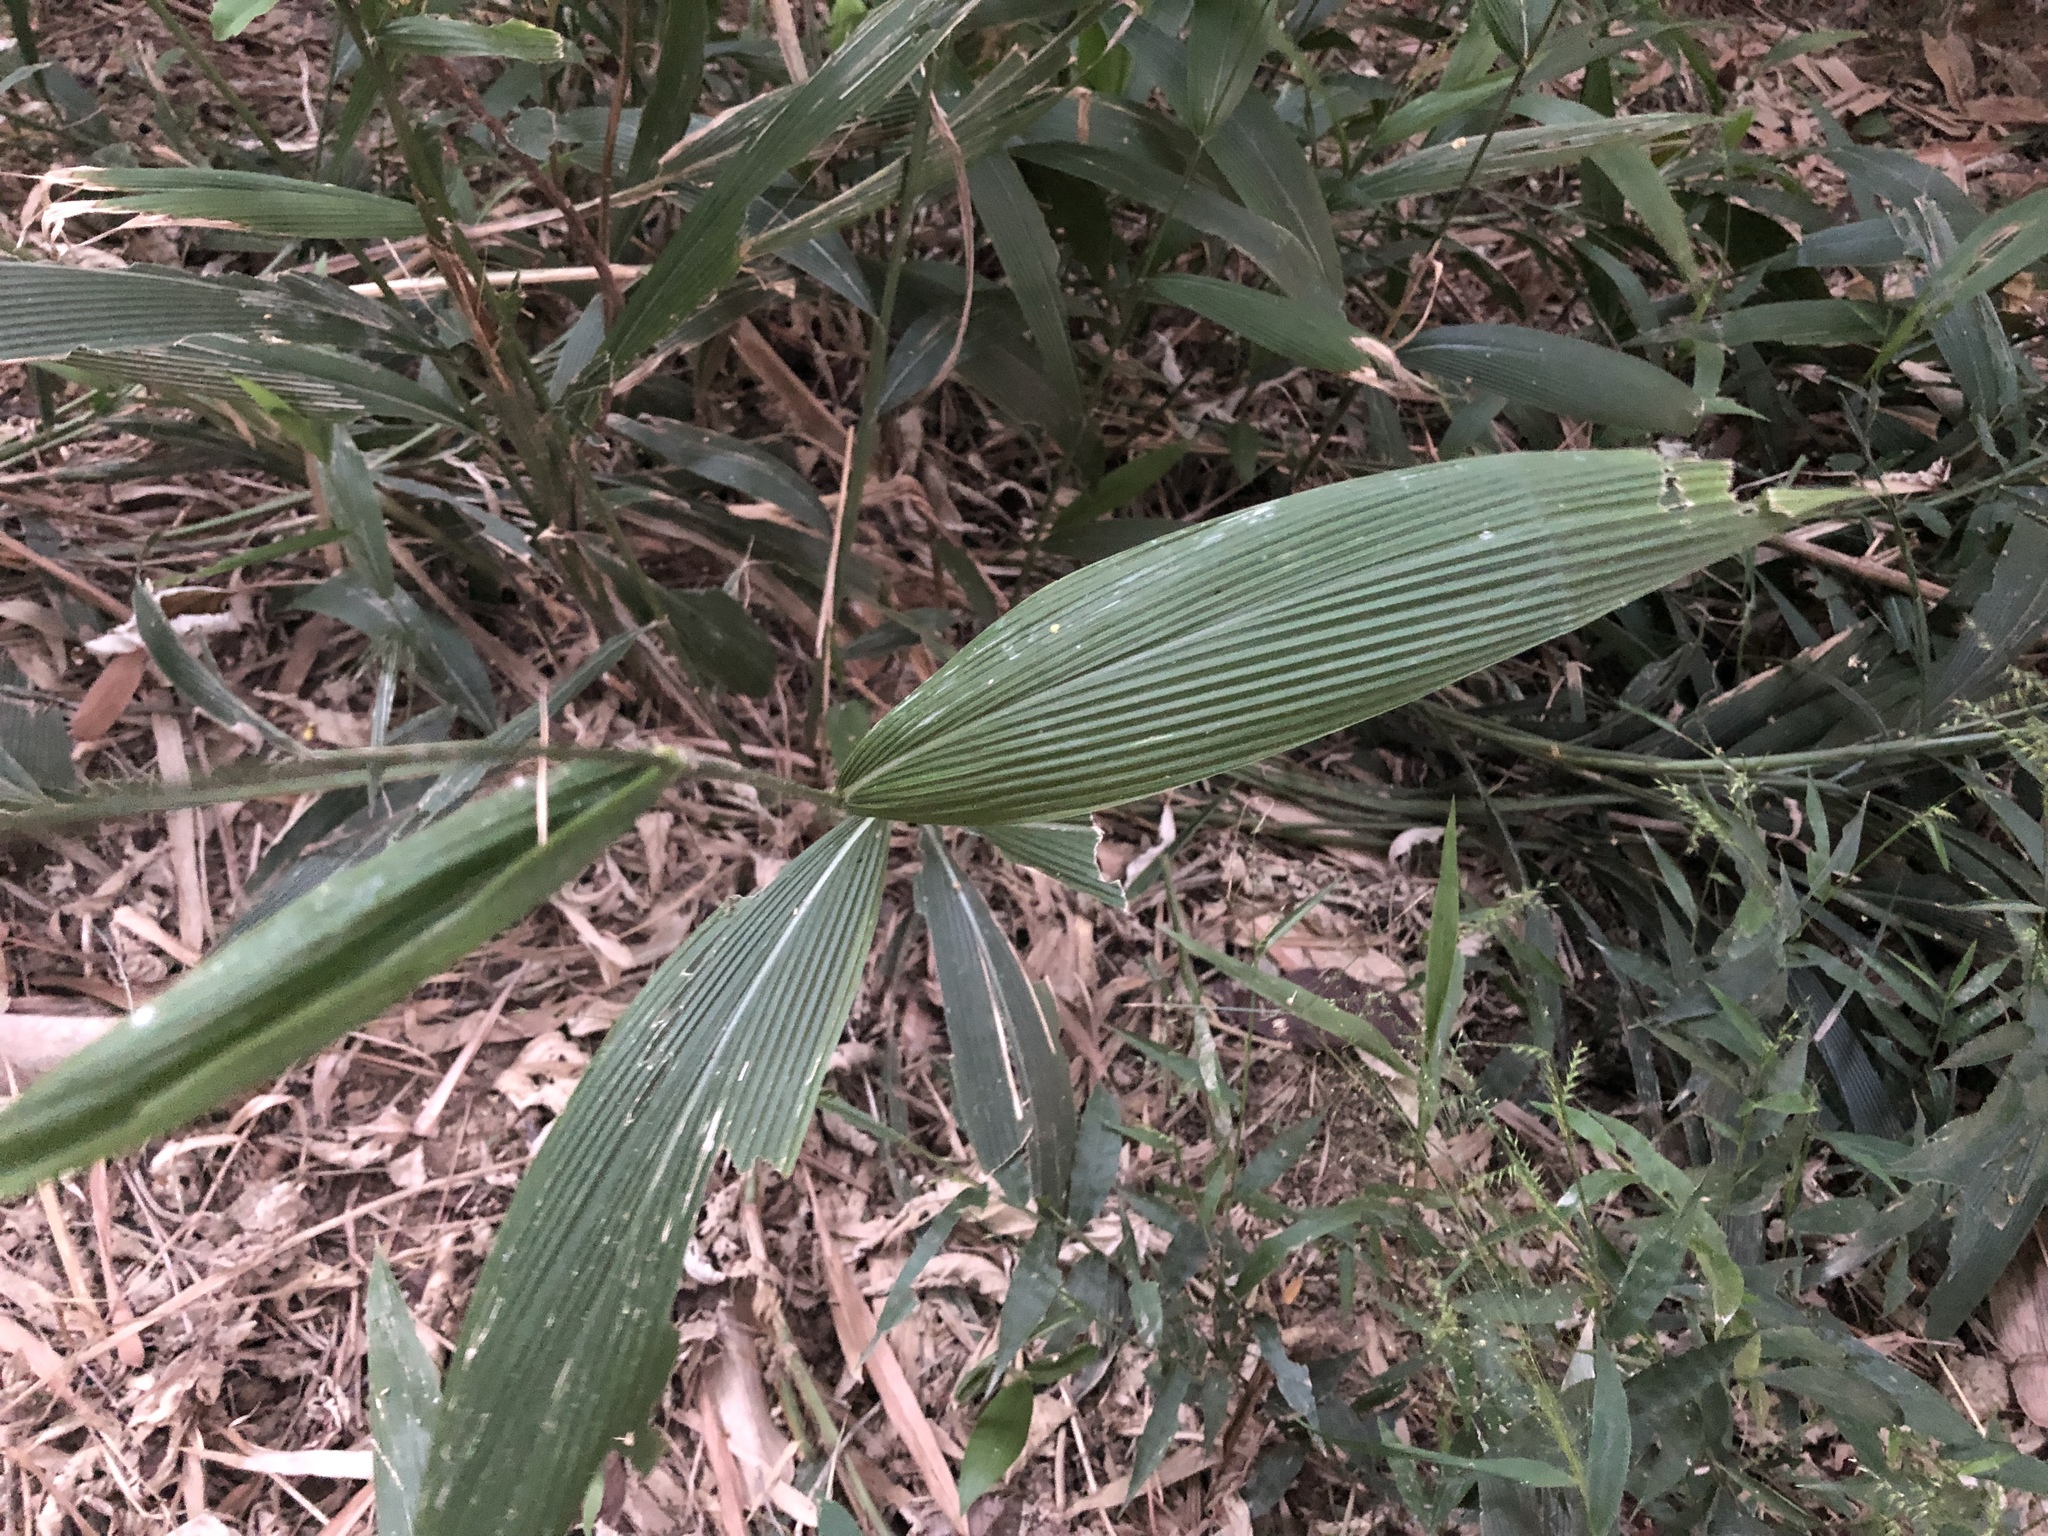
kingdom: Plantae
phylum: Tracheophyta
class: Liliopsida
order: Poales
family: Poaceae
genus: Setaria
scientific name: Setaria palmifolia
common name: Broadleaved bristlegrass
